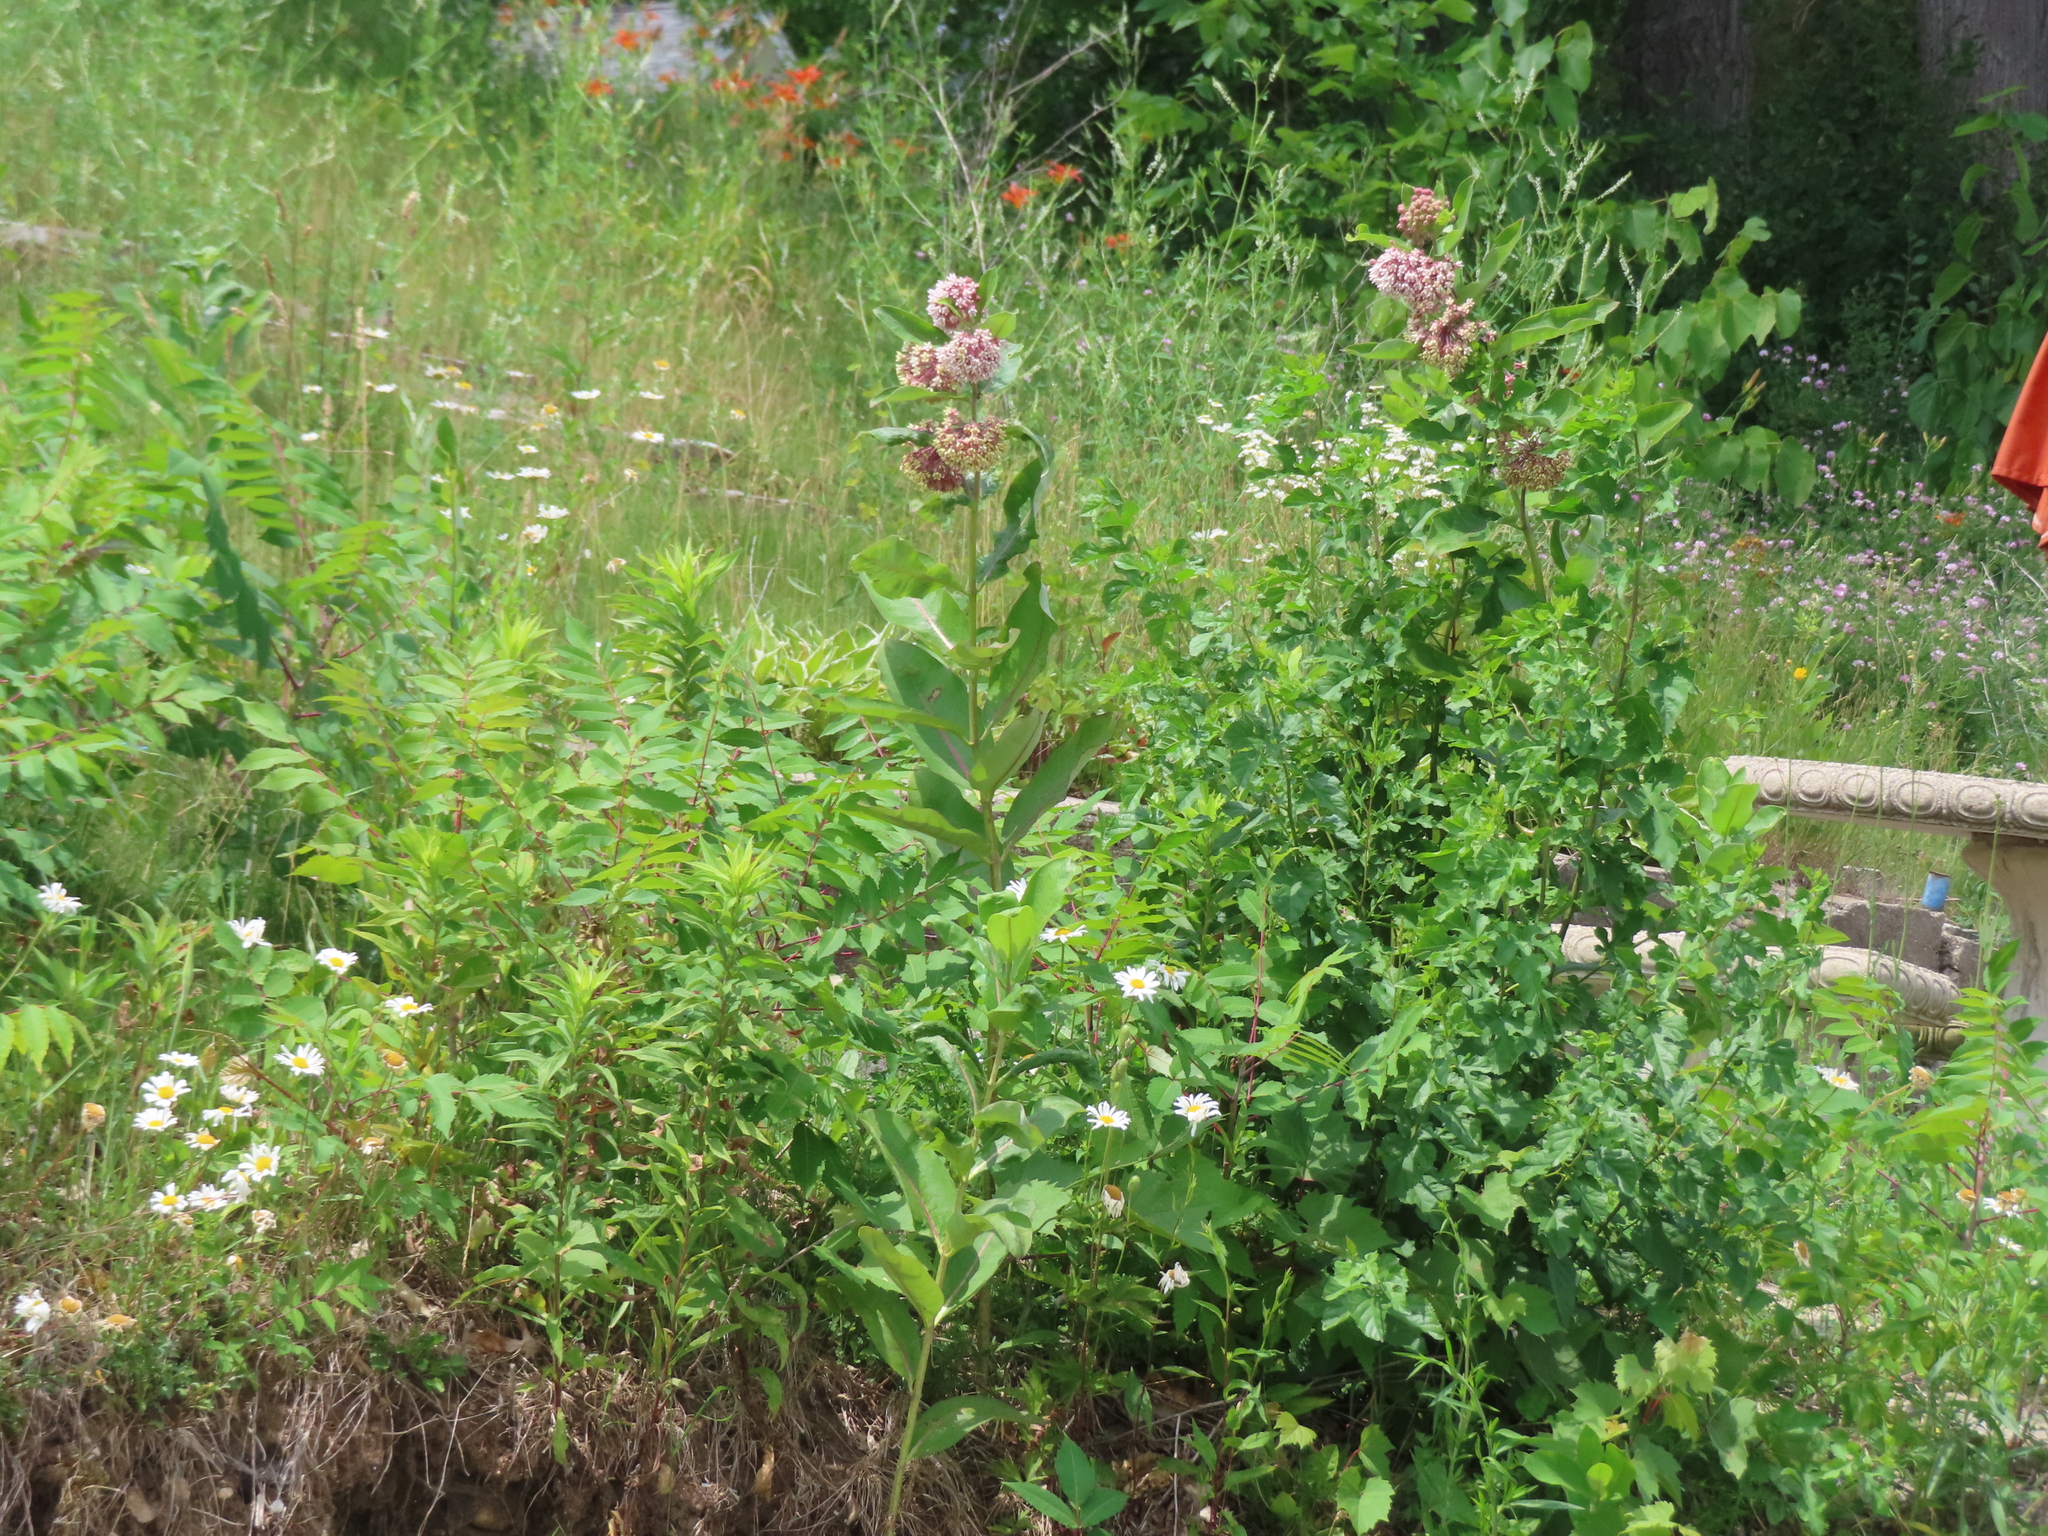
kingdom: Plantae
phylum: Tracheophyta
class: Magnoliopsida
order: Gentianales
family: Apocynaceae
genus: Asclepias
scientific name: Asclepias syriaca
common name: Common milkweed
